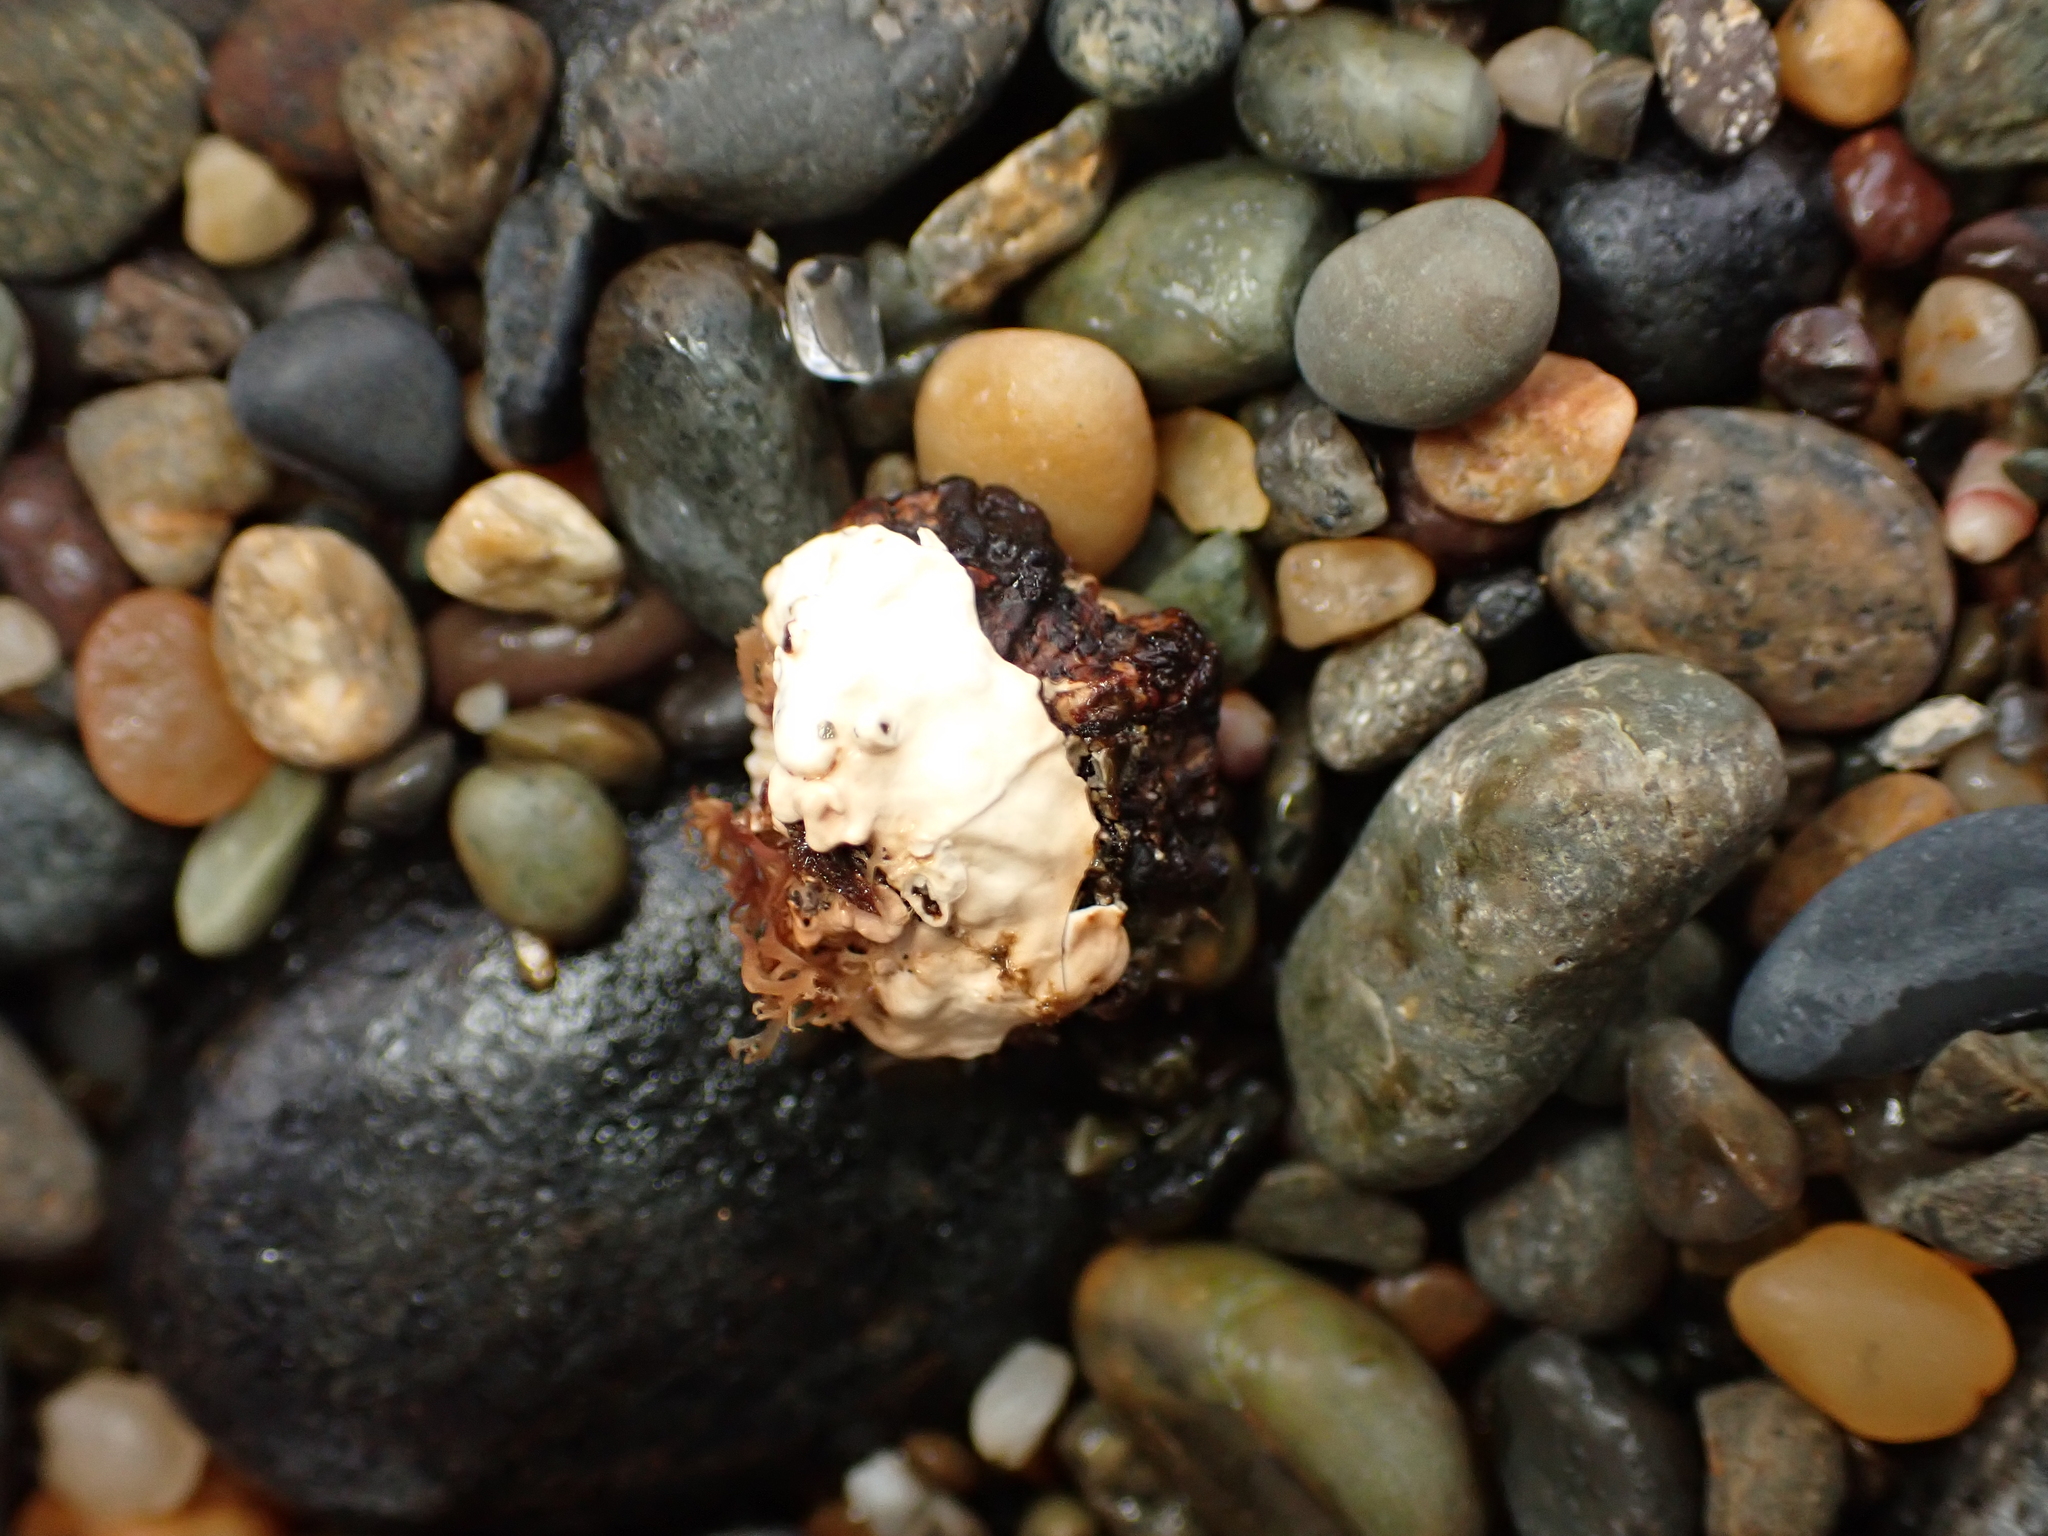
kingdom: Animalia
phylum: Mollusca
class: Gastropoda
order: Siphonariida
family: Siphonariidae
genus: Siphonaria
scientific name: Siphonaria australis
